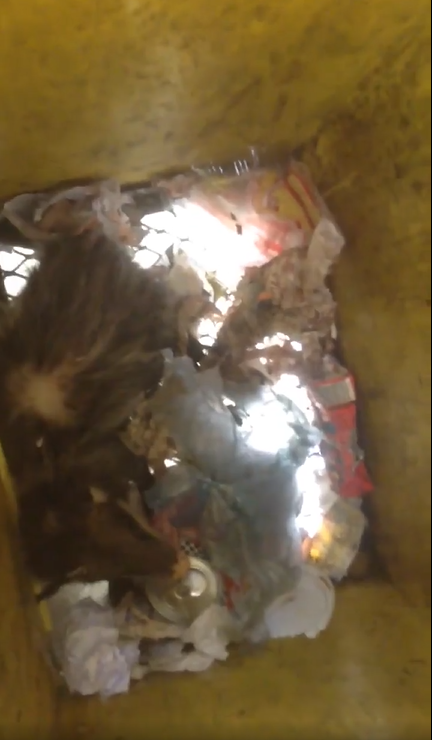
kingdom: Animalia
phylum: Chordata
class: Mammalia
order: Didelphimorphia
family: Didelphidae
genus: Didelphis
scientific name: Didelphis virginiana
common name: Virginia opossum
